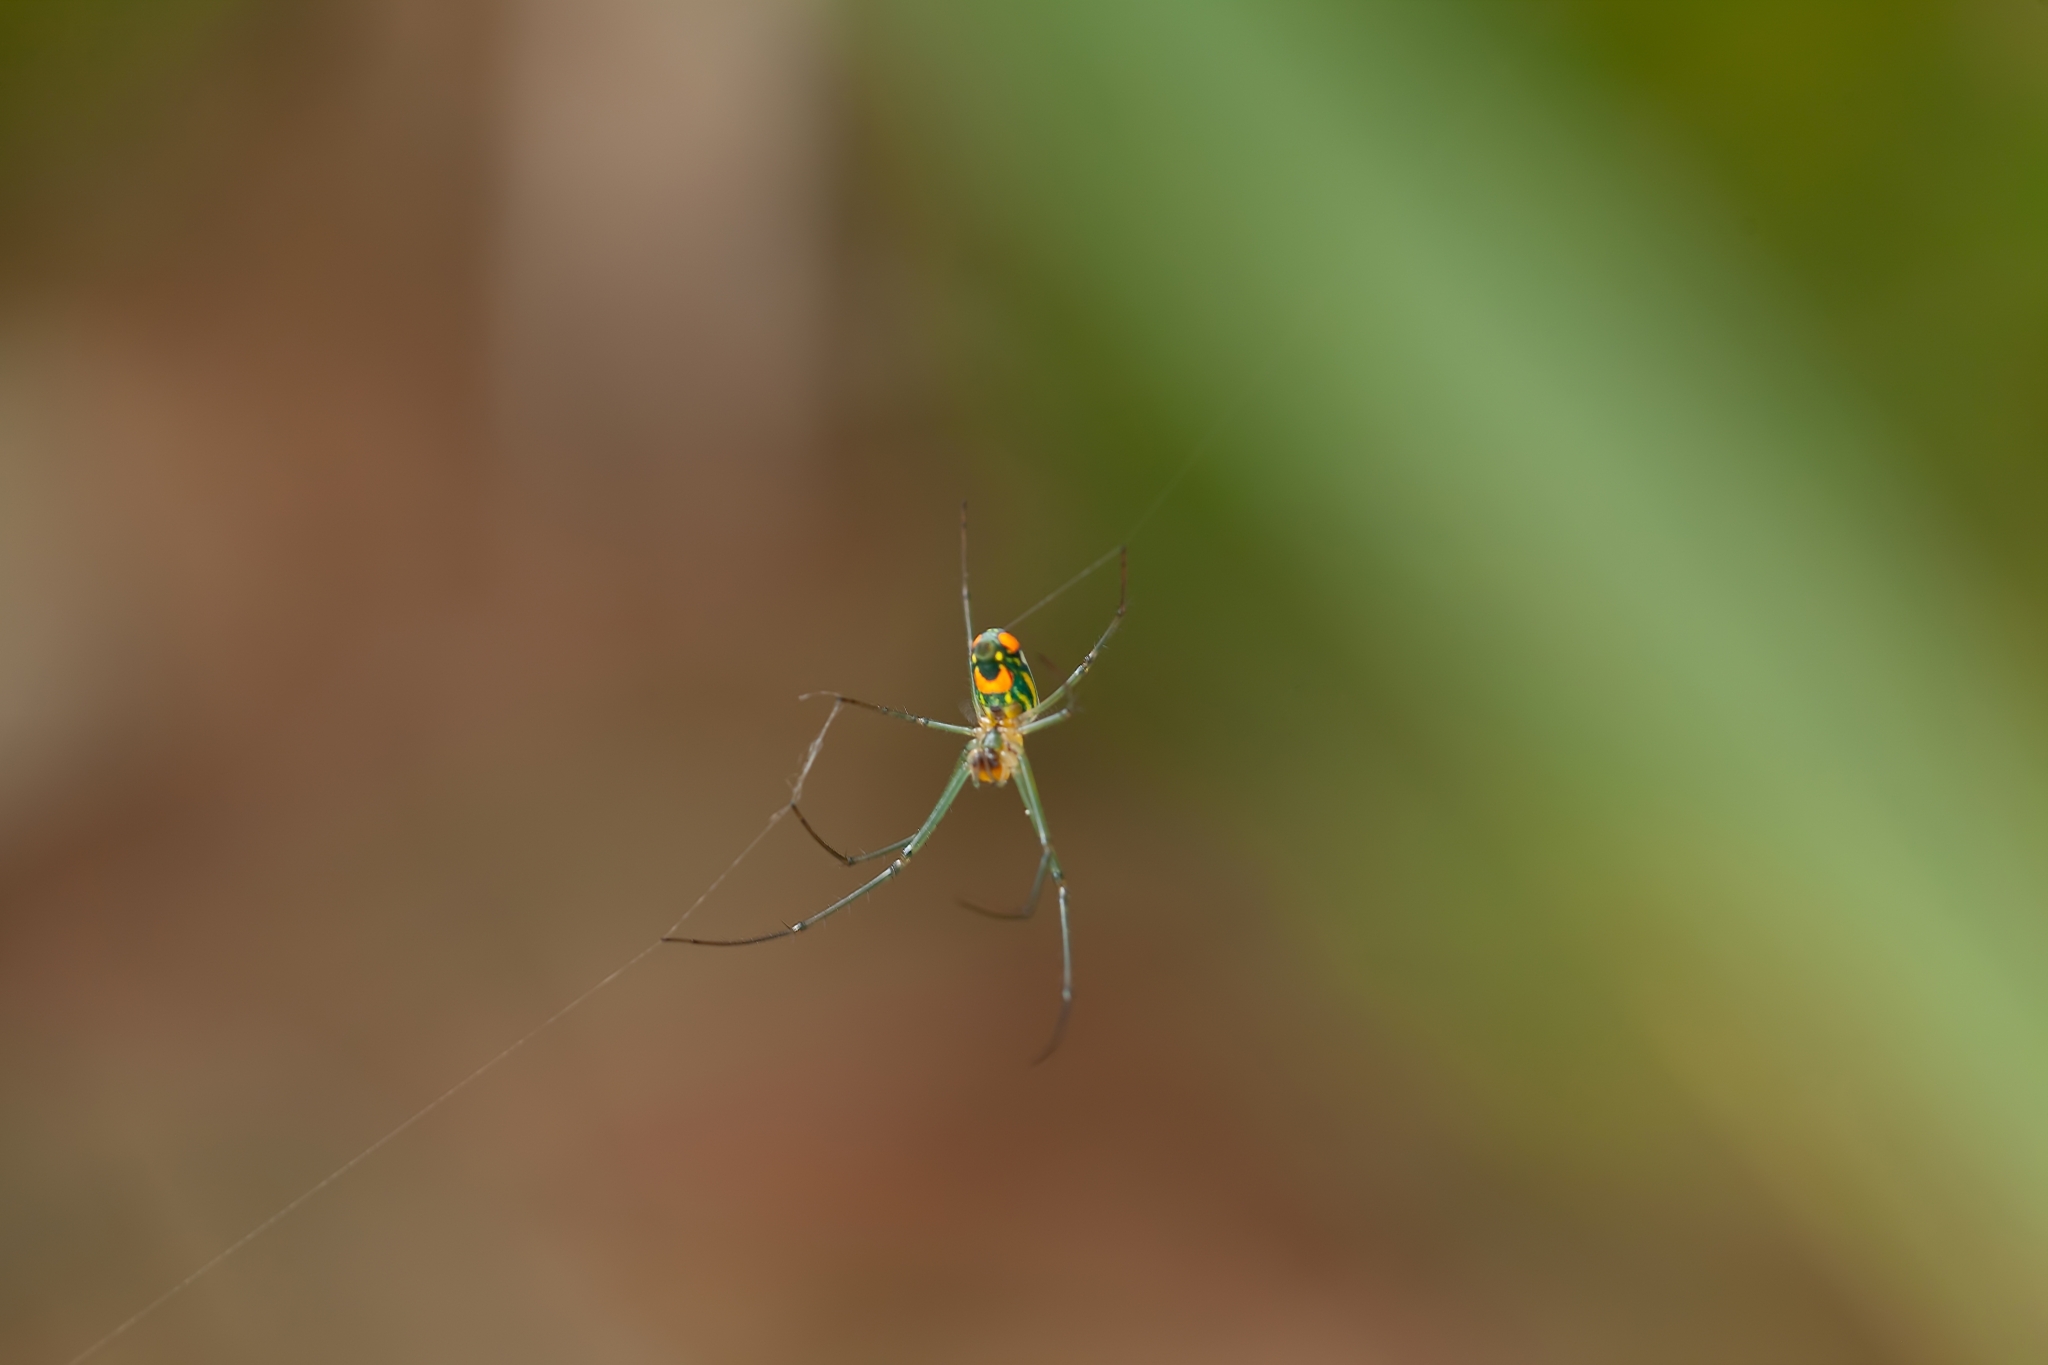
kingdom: Animalia
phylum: Arthropoda
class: Arachnida
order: Araneae
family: Tetragnathidae
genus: Leucauge
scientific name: Leucauge argyrobapta
